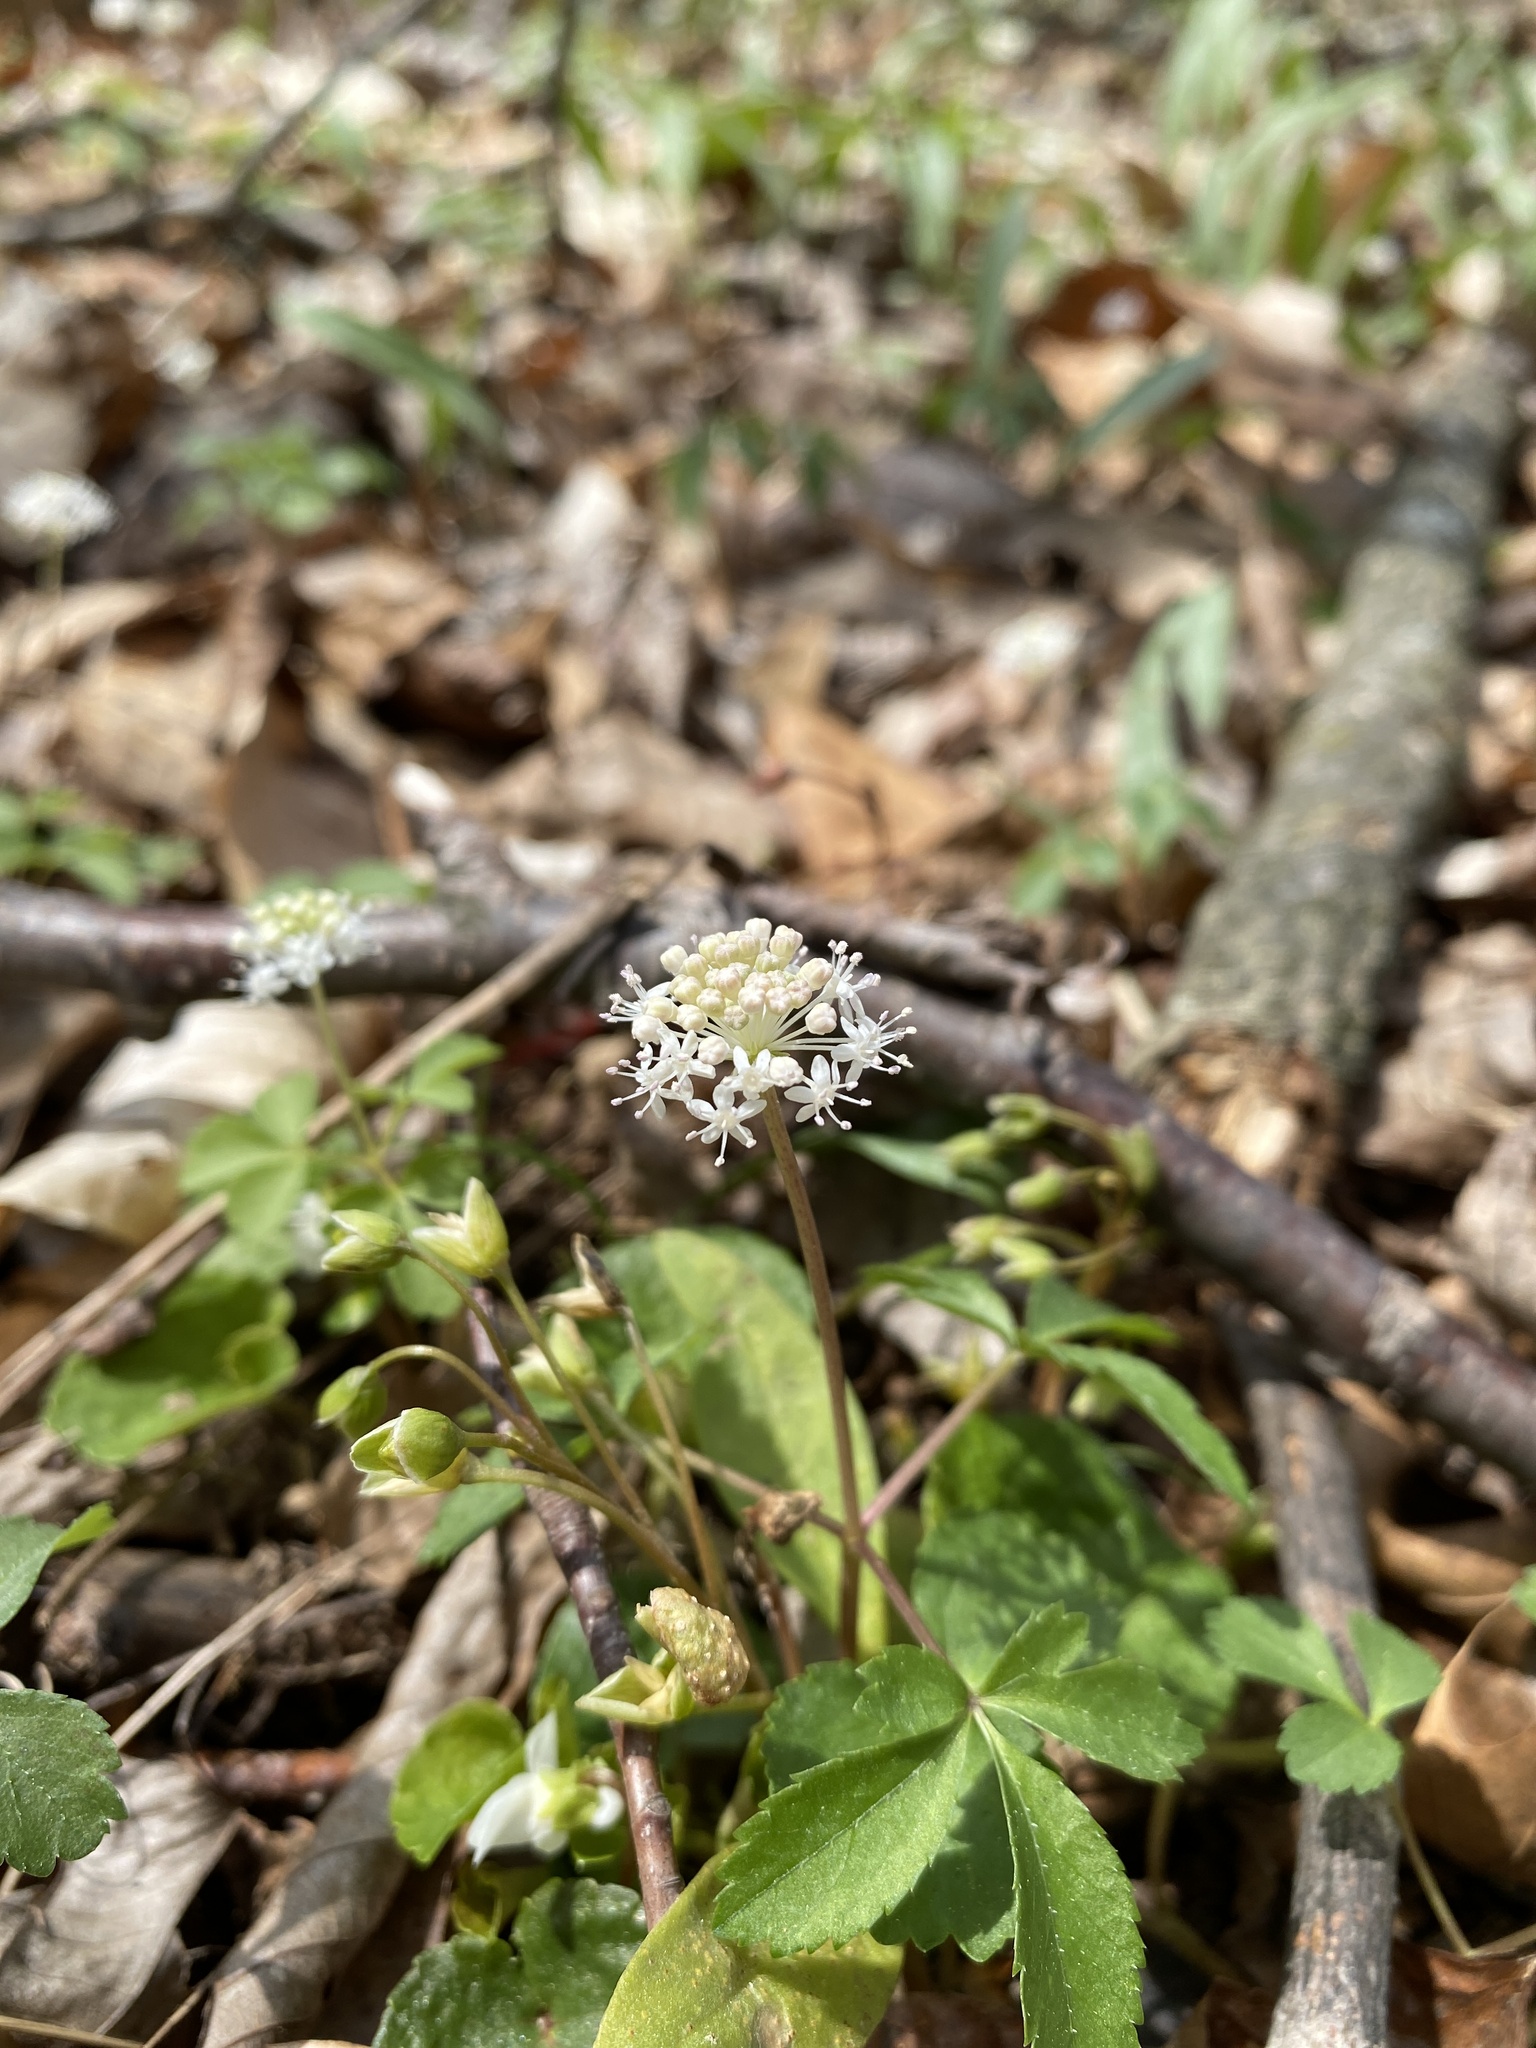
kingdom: Plantae
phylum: Tracheophyta
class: Magnoliopsida
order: Apiales
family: Araliaceae
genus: Panax
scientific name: Panax trifolius
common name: Dwarf ginseng
